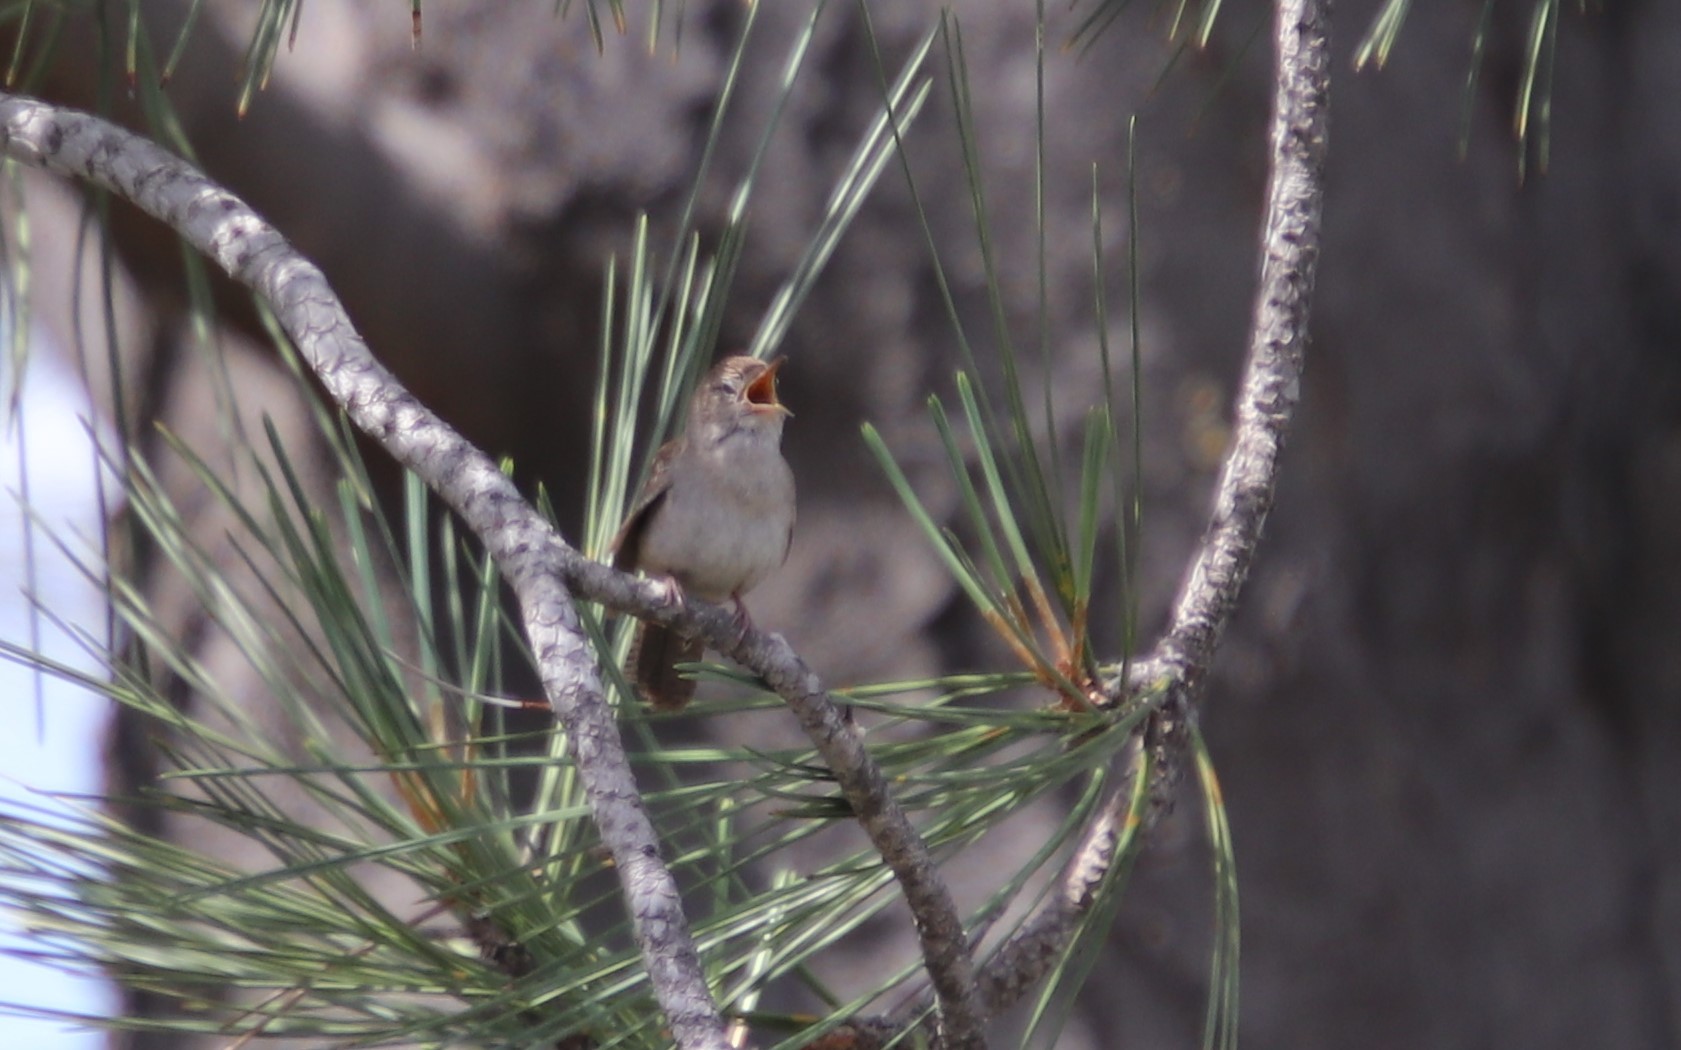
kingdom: Animalia
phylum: Chordata
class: Aves
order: Passeriformes
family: Troglodytidae
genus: Troglodytes
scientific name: Troglodytes aedon
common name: House wren
